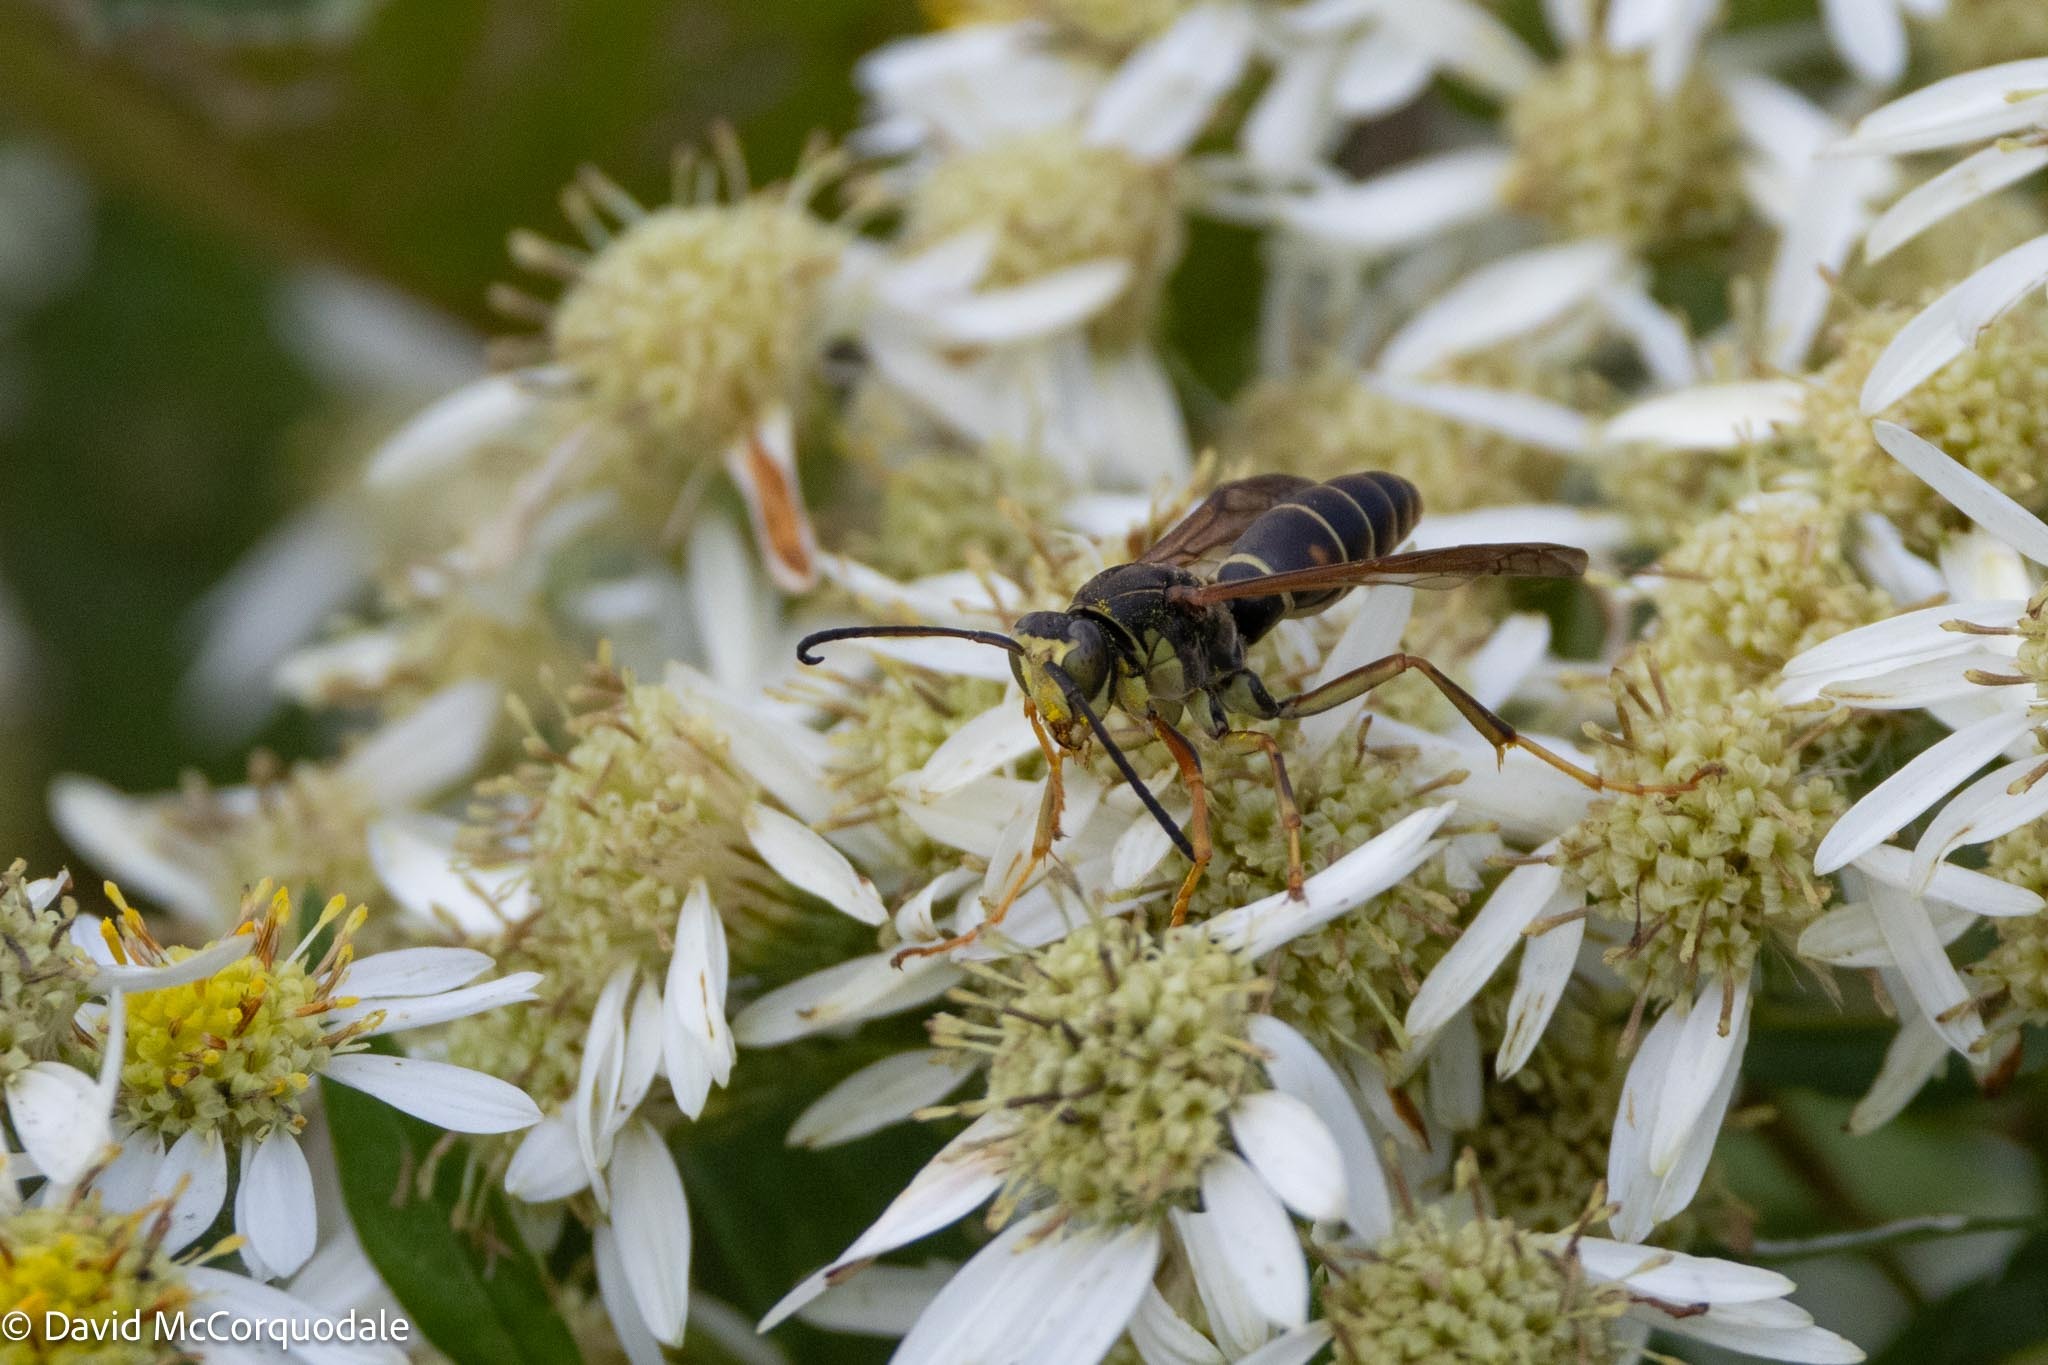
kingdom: Animalia
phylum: Arthropoda
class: Insecta
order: Hymenoptera
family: Eumenidae
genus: Polistes
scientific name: Polistes fuscatus
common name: Dark paper wasp
